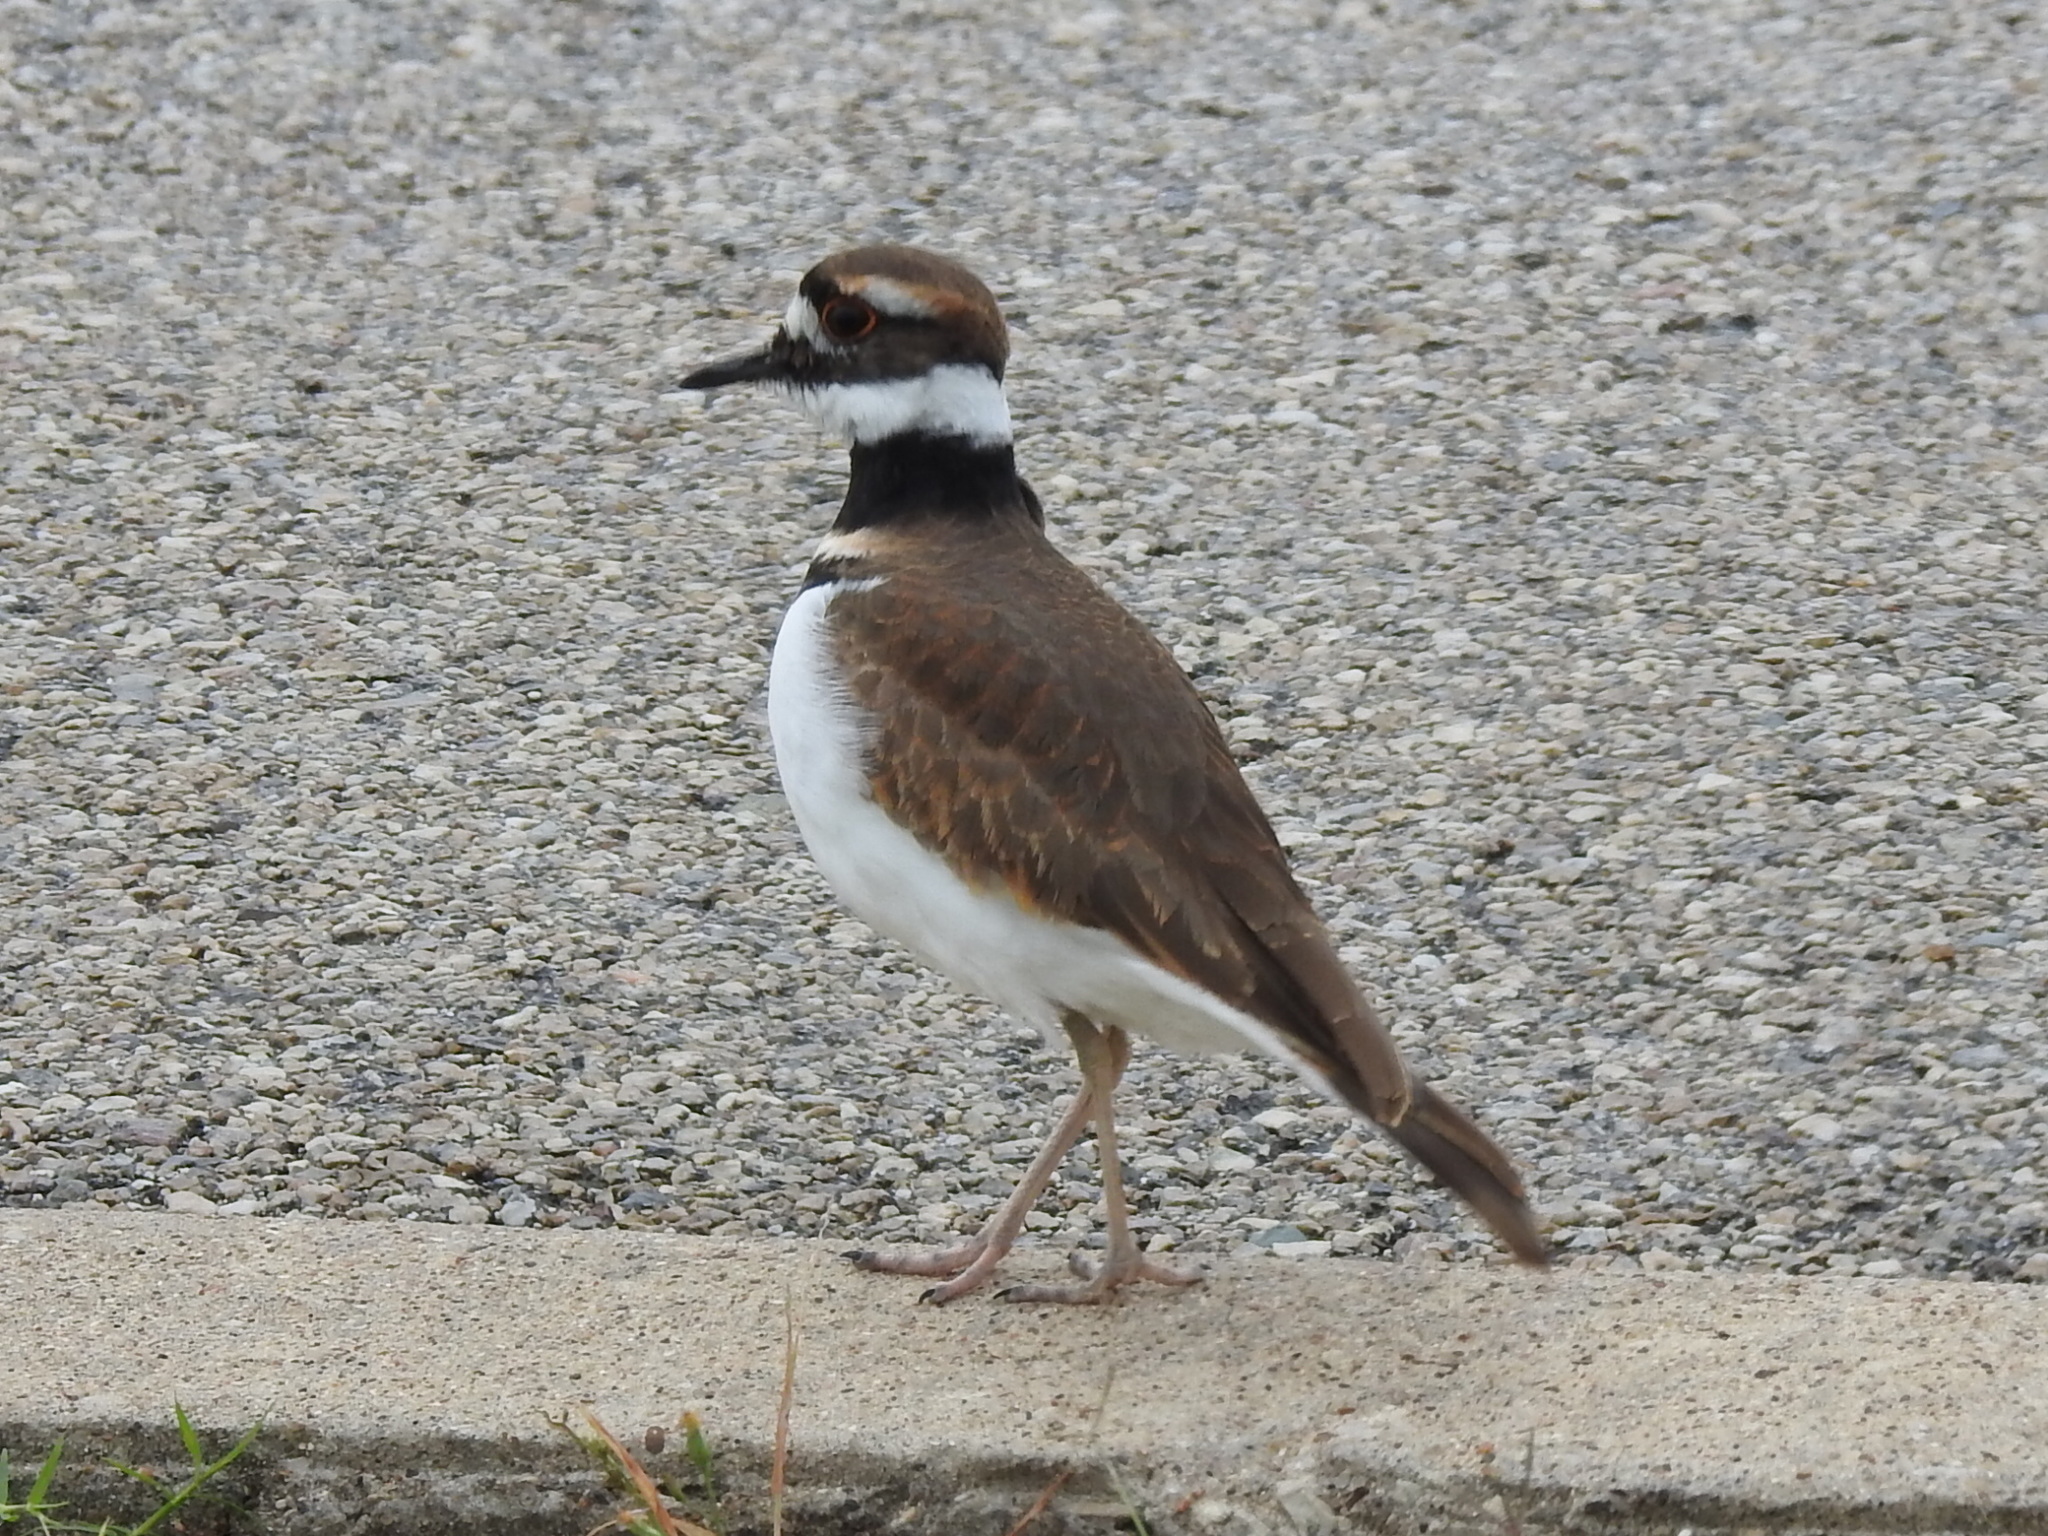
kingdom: Animalia
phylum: Chordata
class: Aves
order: Charadriiformes
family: Charadriidae
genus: Charadrius
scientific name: Charadrius vociferus
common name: Killdeer
